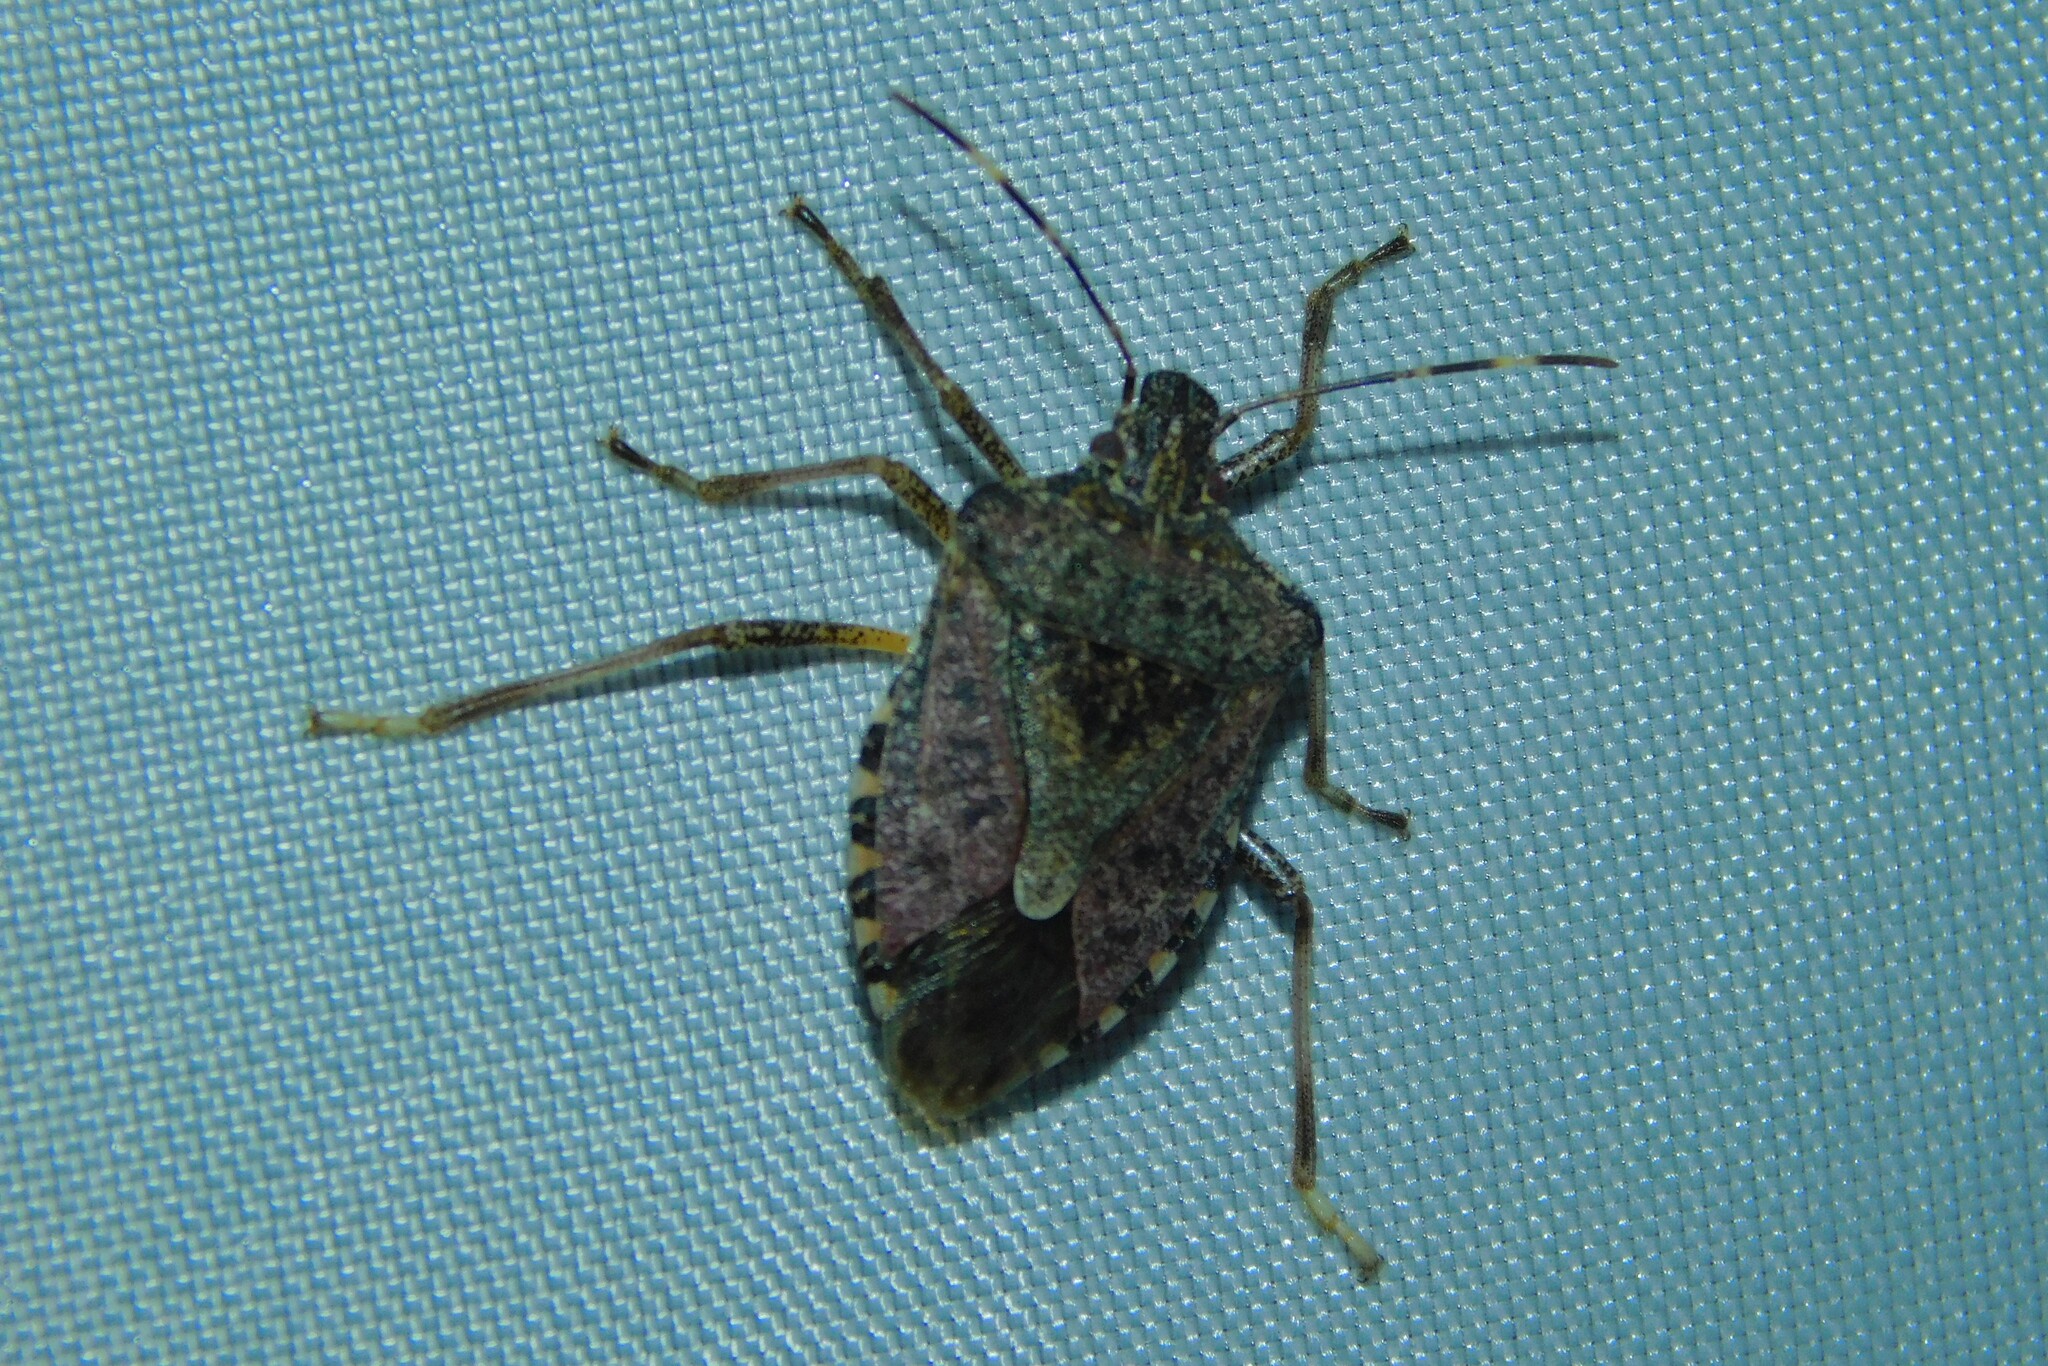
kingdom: Animalia
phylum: Arthropoda
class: Insecta
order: Hemiptera
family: Pentatomidae
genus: Halyomorpha
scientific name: Halyomorpha halys
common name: Brown marmorated stink bug
